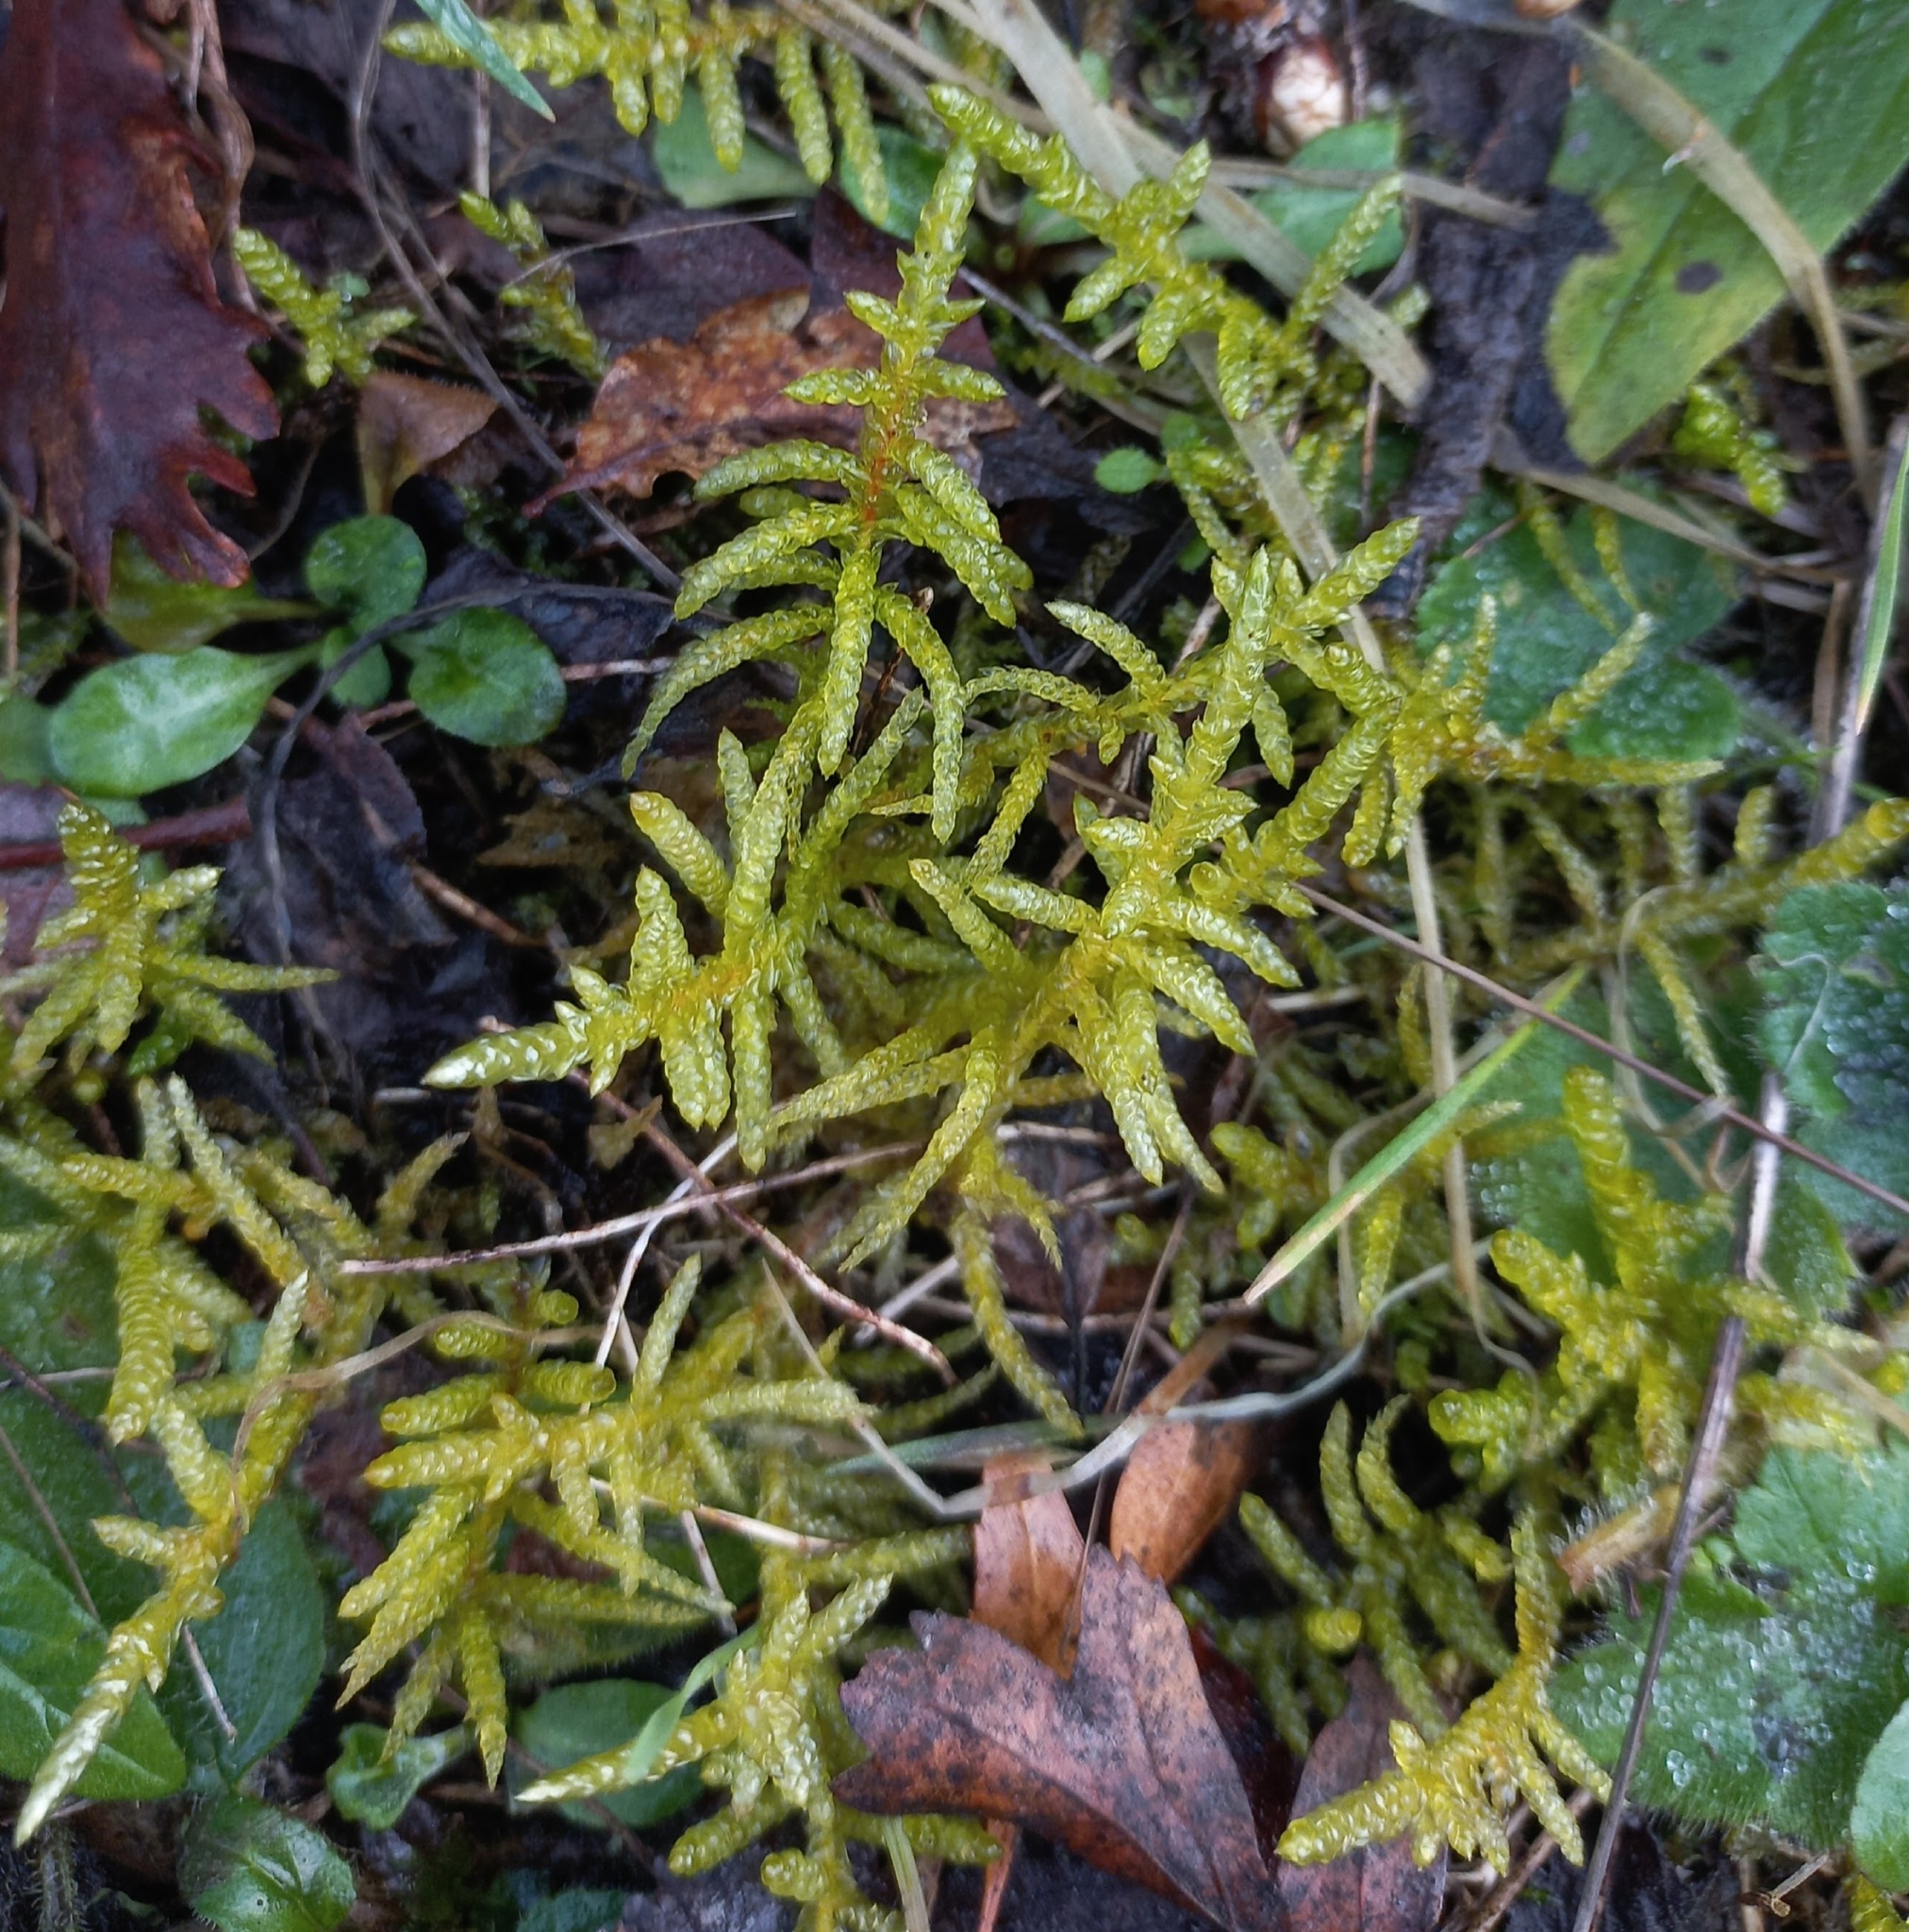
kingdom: Plantae
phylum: Bryophyta
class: Bryopsida
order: Hypnales
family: Brachytheciaceae
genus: Pseudoscleropodium
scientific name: Pseudoscleropodium purum
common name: Neat feather-moss
